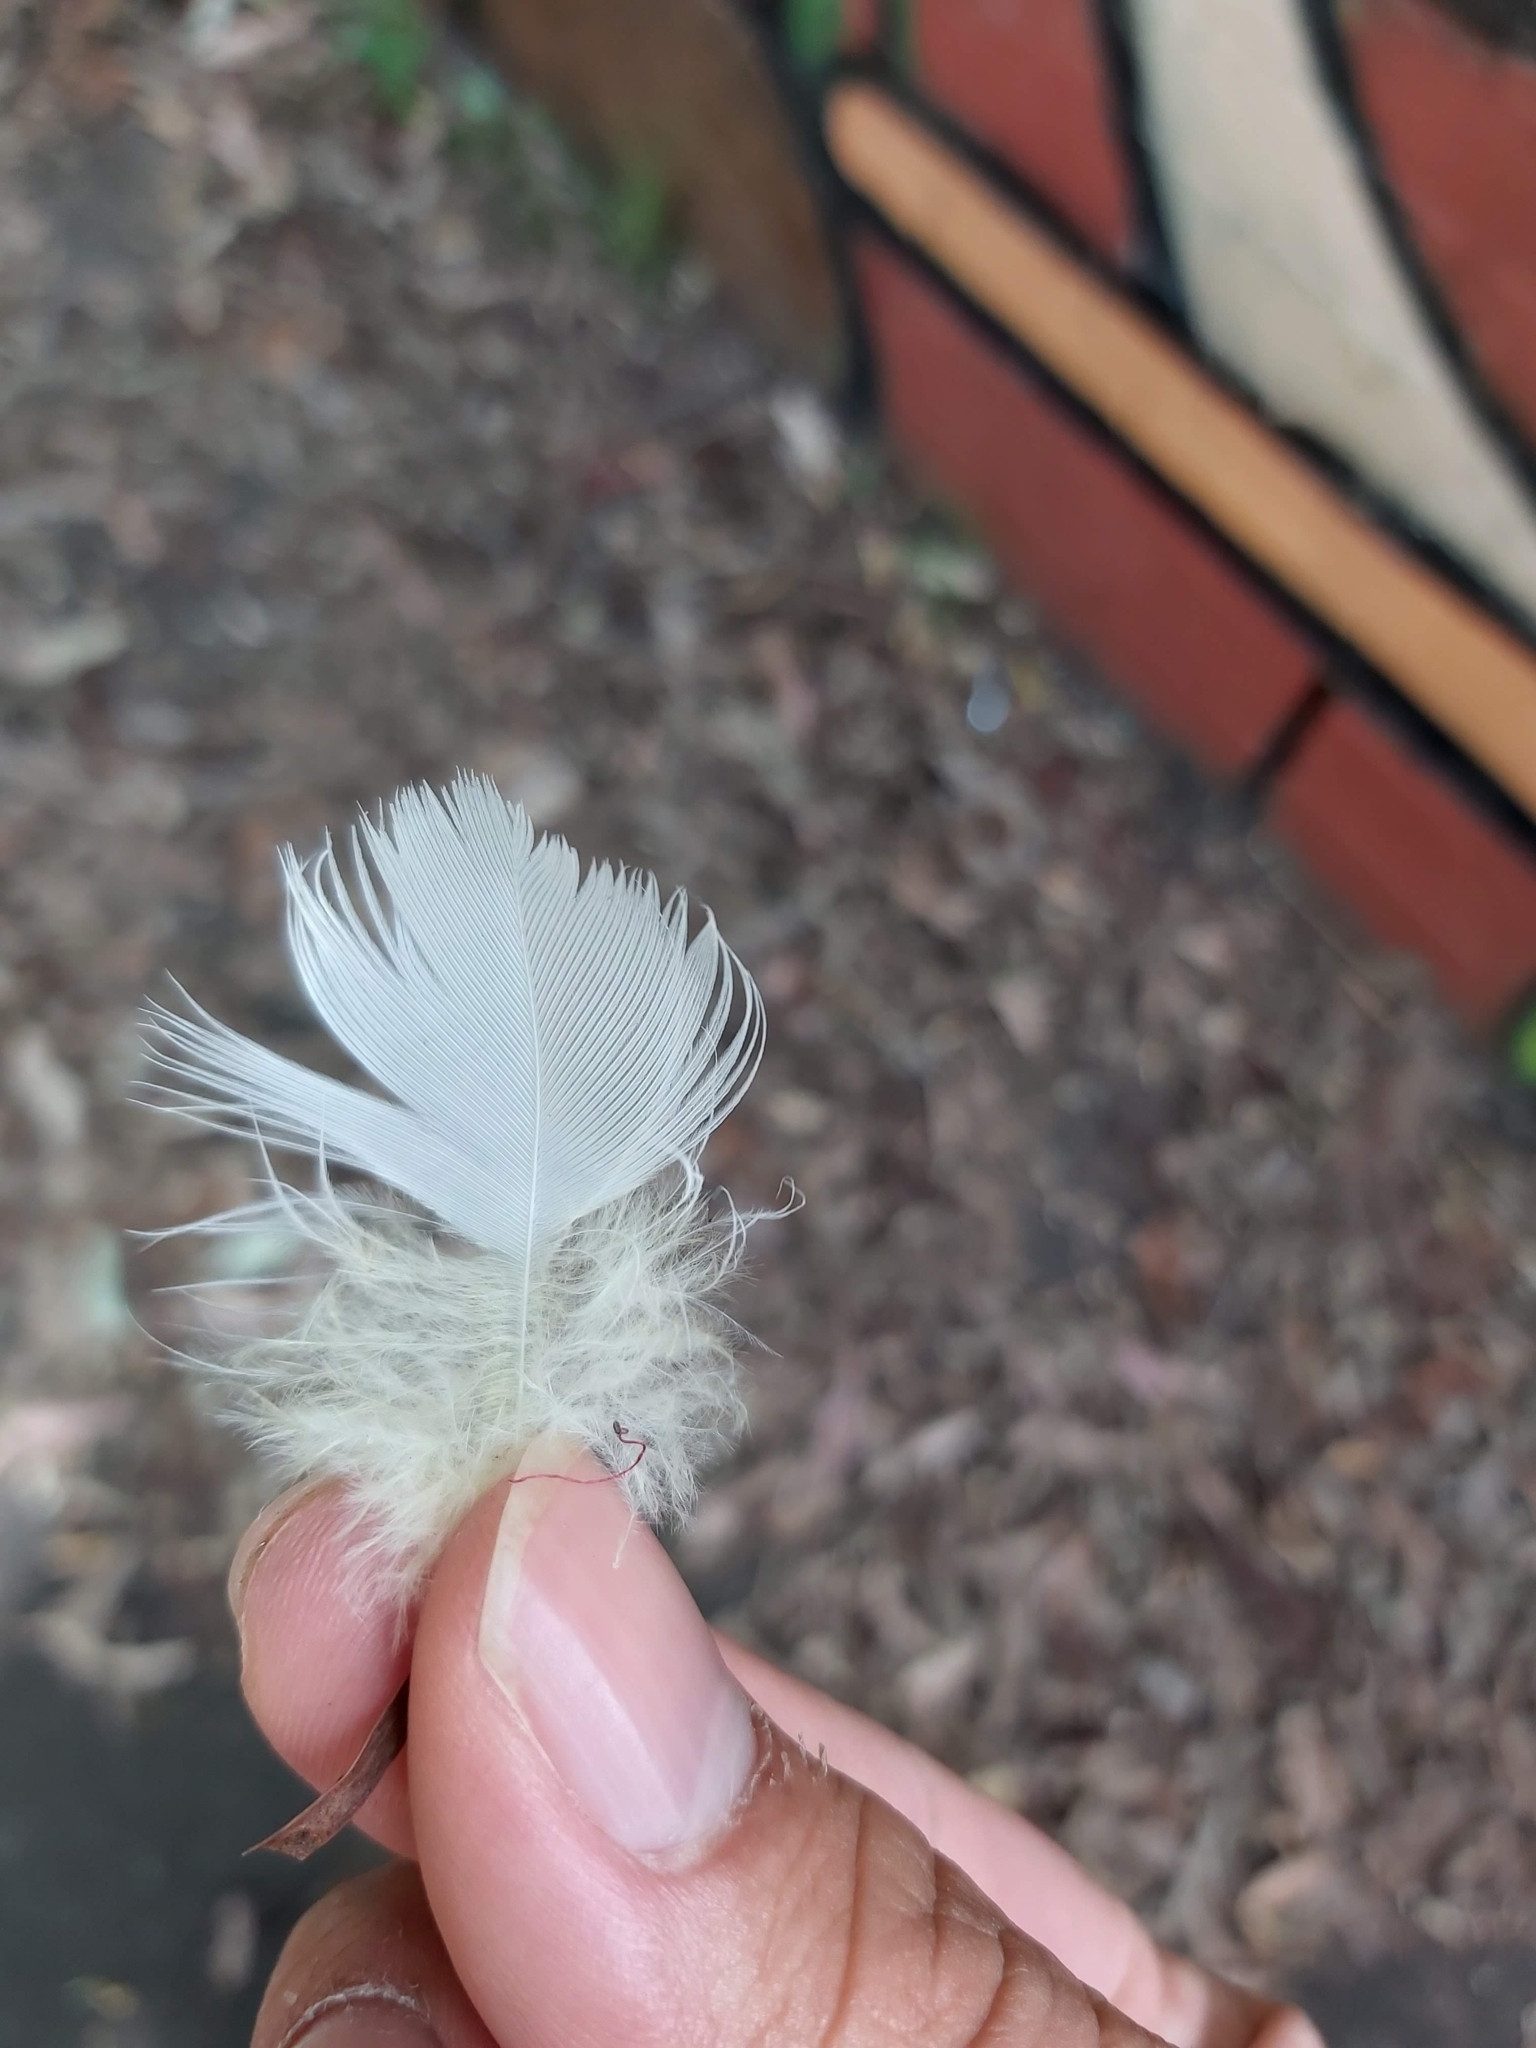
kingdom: Animalia
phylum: Chordata
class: Aves
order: Psittaciformes
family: Psittacidae
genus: Cacatua
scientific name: Cacatua galerita
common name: Sulphur-crested cockatoo
